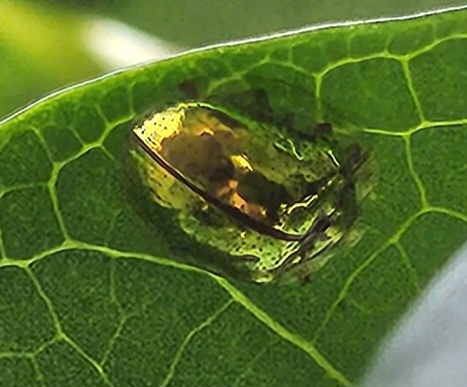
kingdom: Animalia
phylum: Arthropoda
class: Insecta
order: Coleoptera
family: Chrysomelidae
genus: Charidotella
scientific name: Charidotella sexpunctata
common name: Golden tortoise beetle
